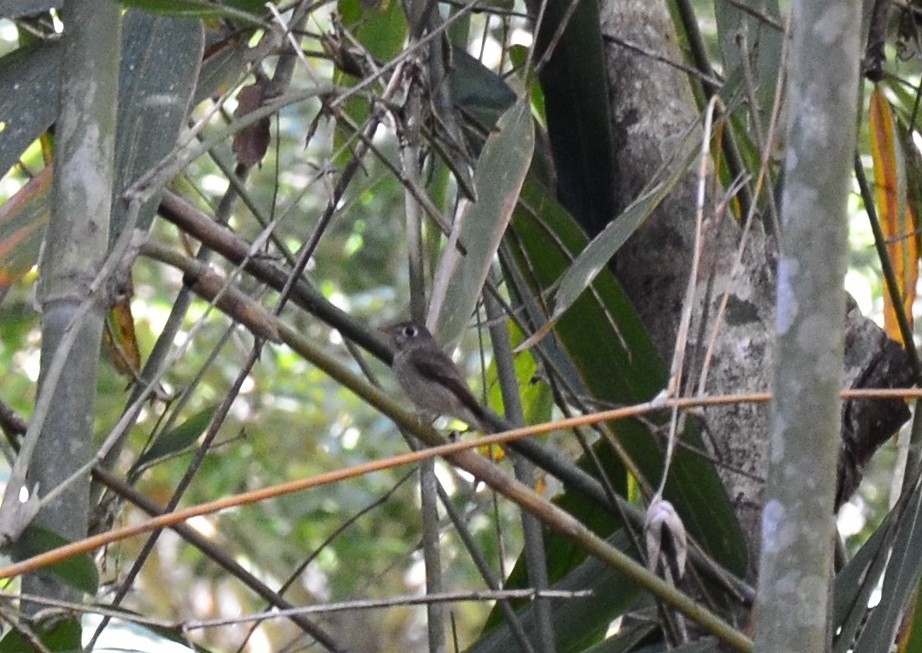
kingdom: Animalia
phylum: Chordata
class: Aves
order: Passeriformes
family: Muscicapidae
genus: Muscicapa
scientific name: Muscicapa latirostris
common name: Asian brown flycatcher
